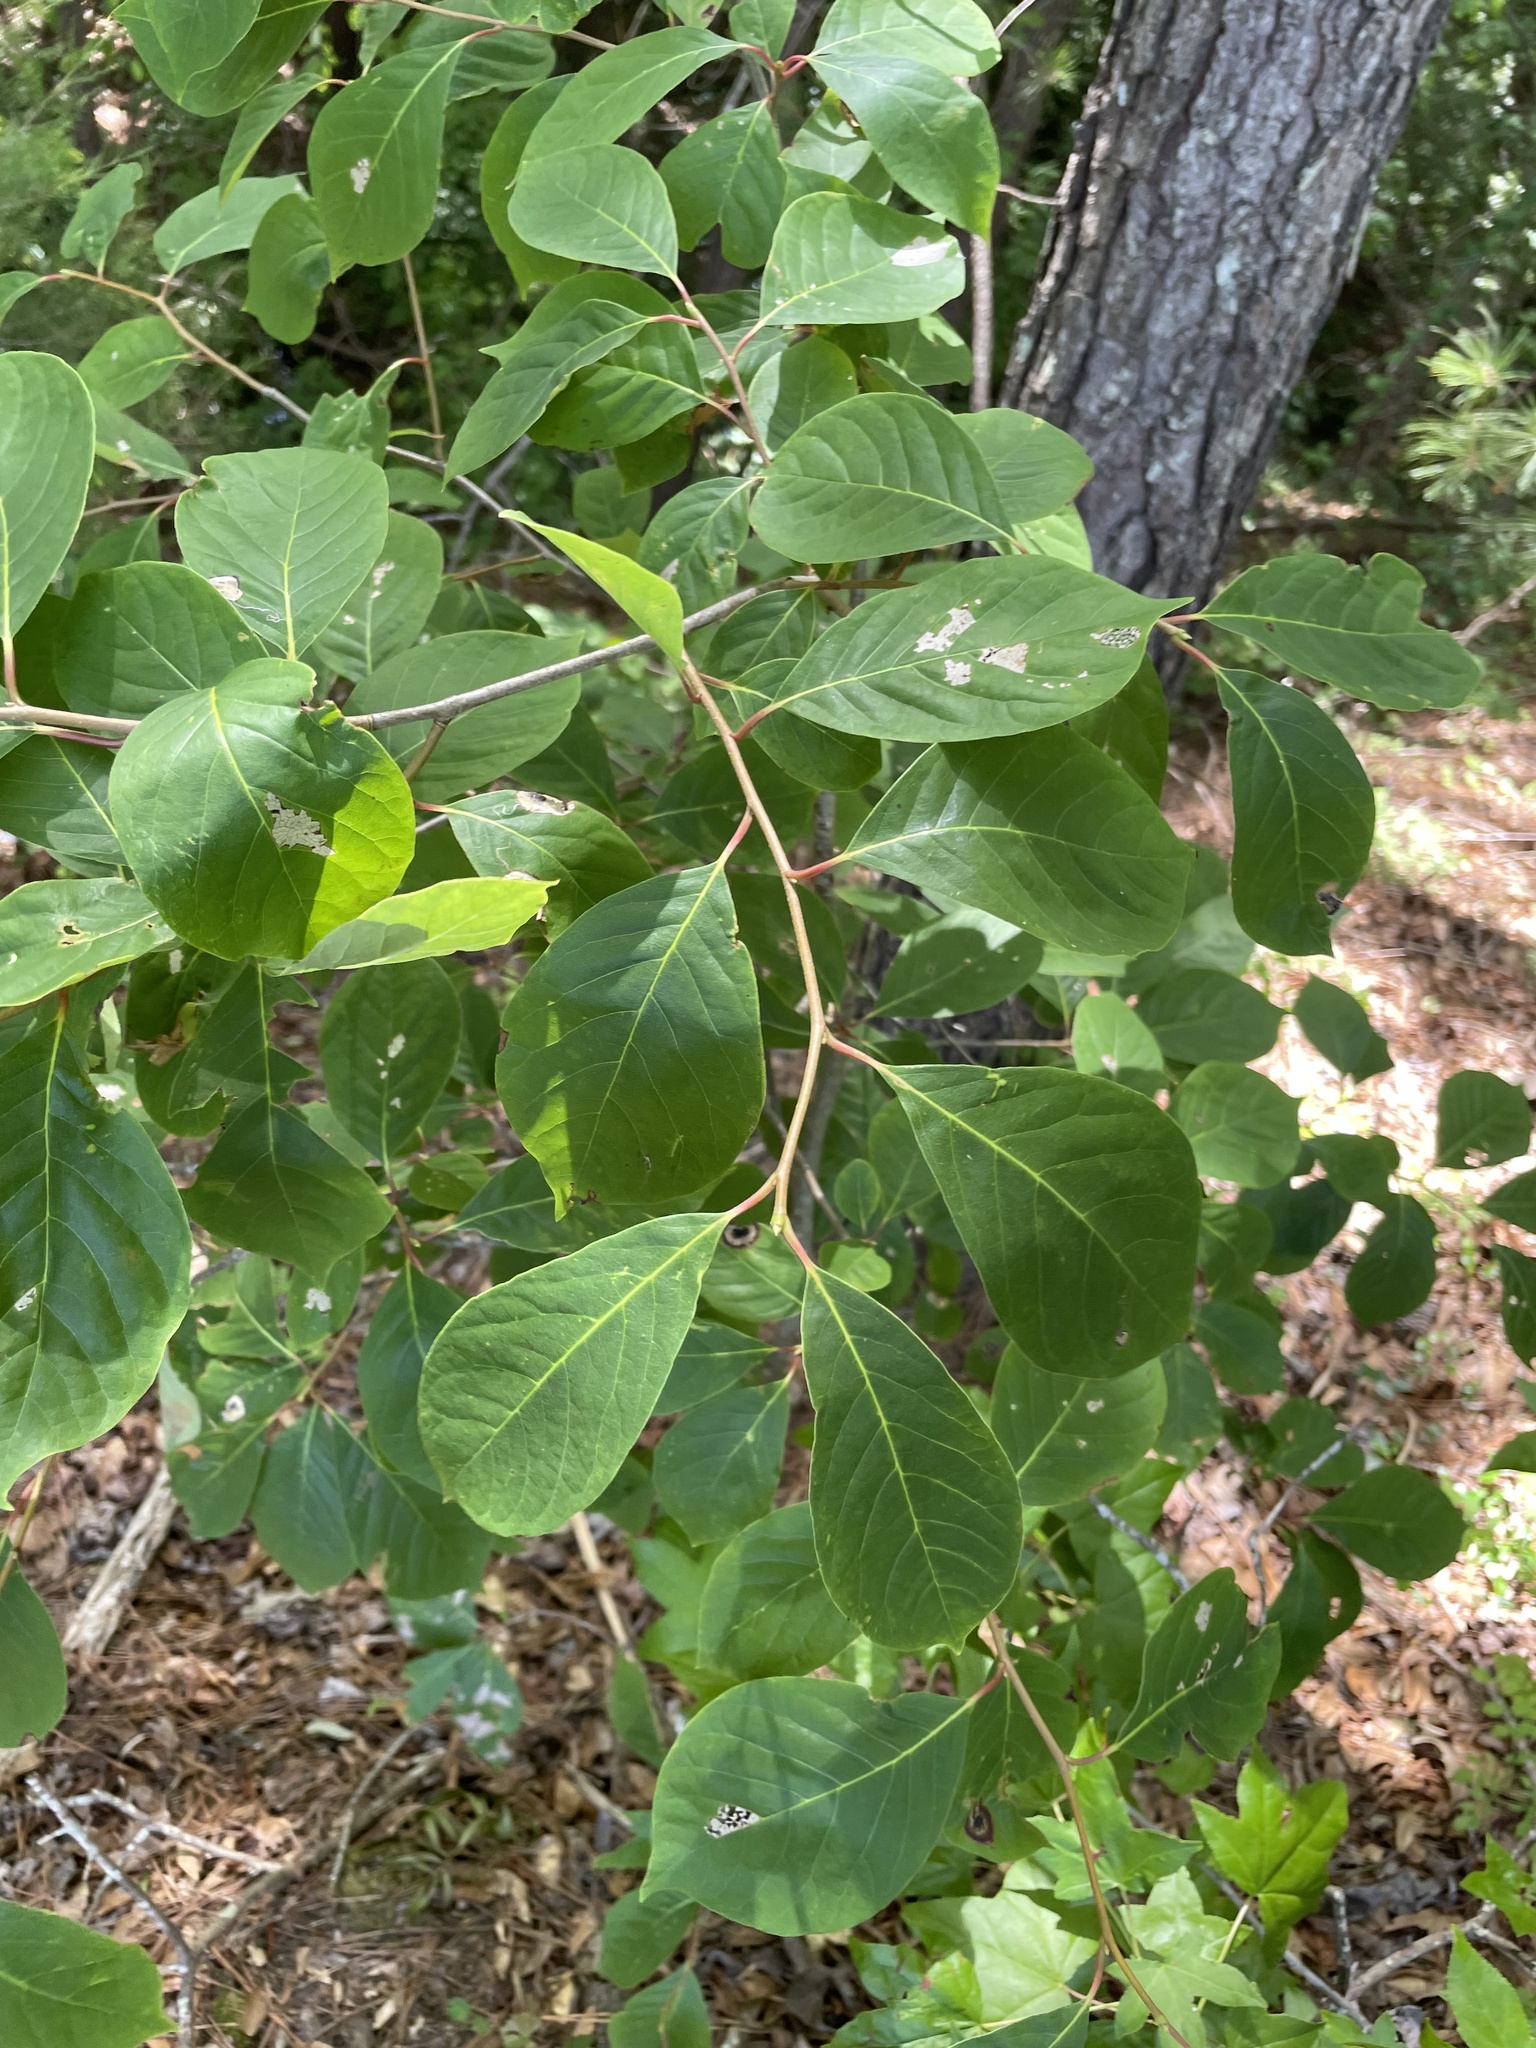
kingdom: Plantae
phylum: Tracheophyta
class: Magnoliopsida
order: Cornales
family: Nyssaceae
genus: Nyssa
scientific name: Nyssa sylvatica
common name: Black tupelo
